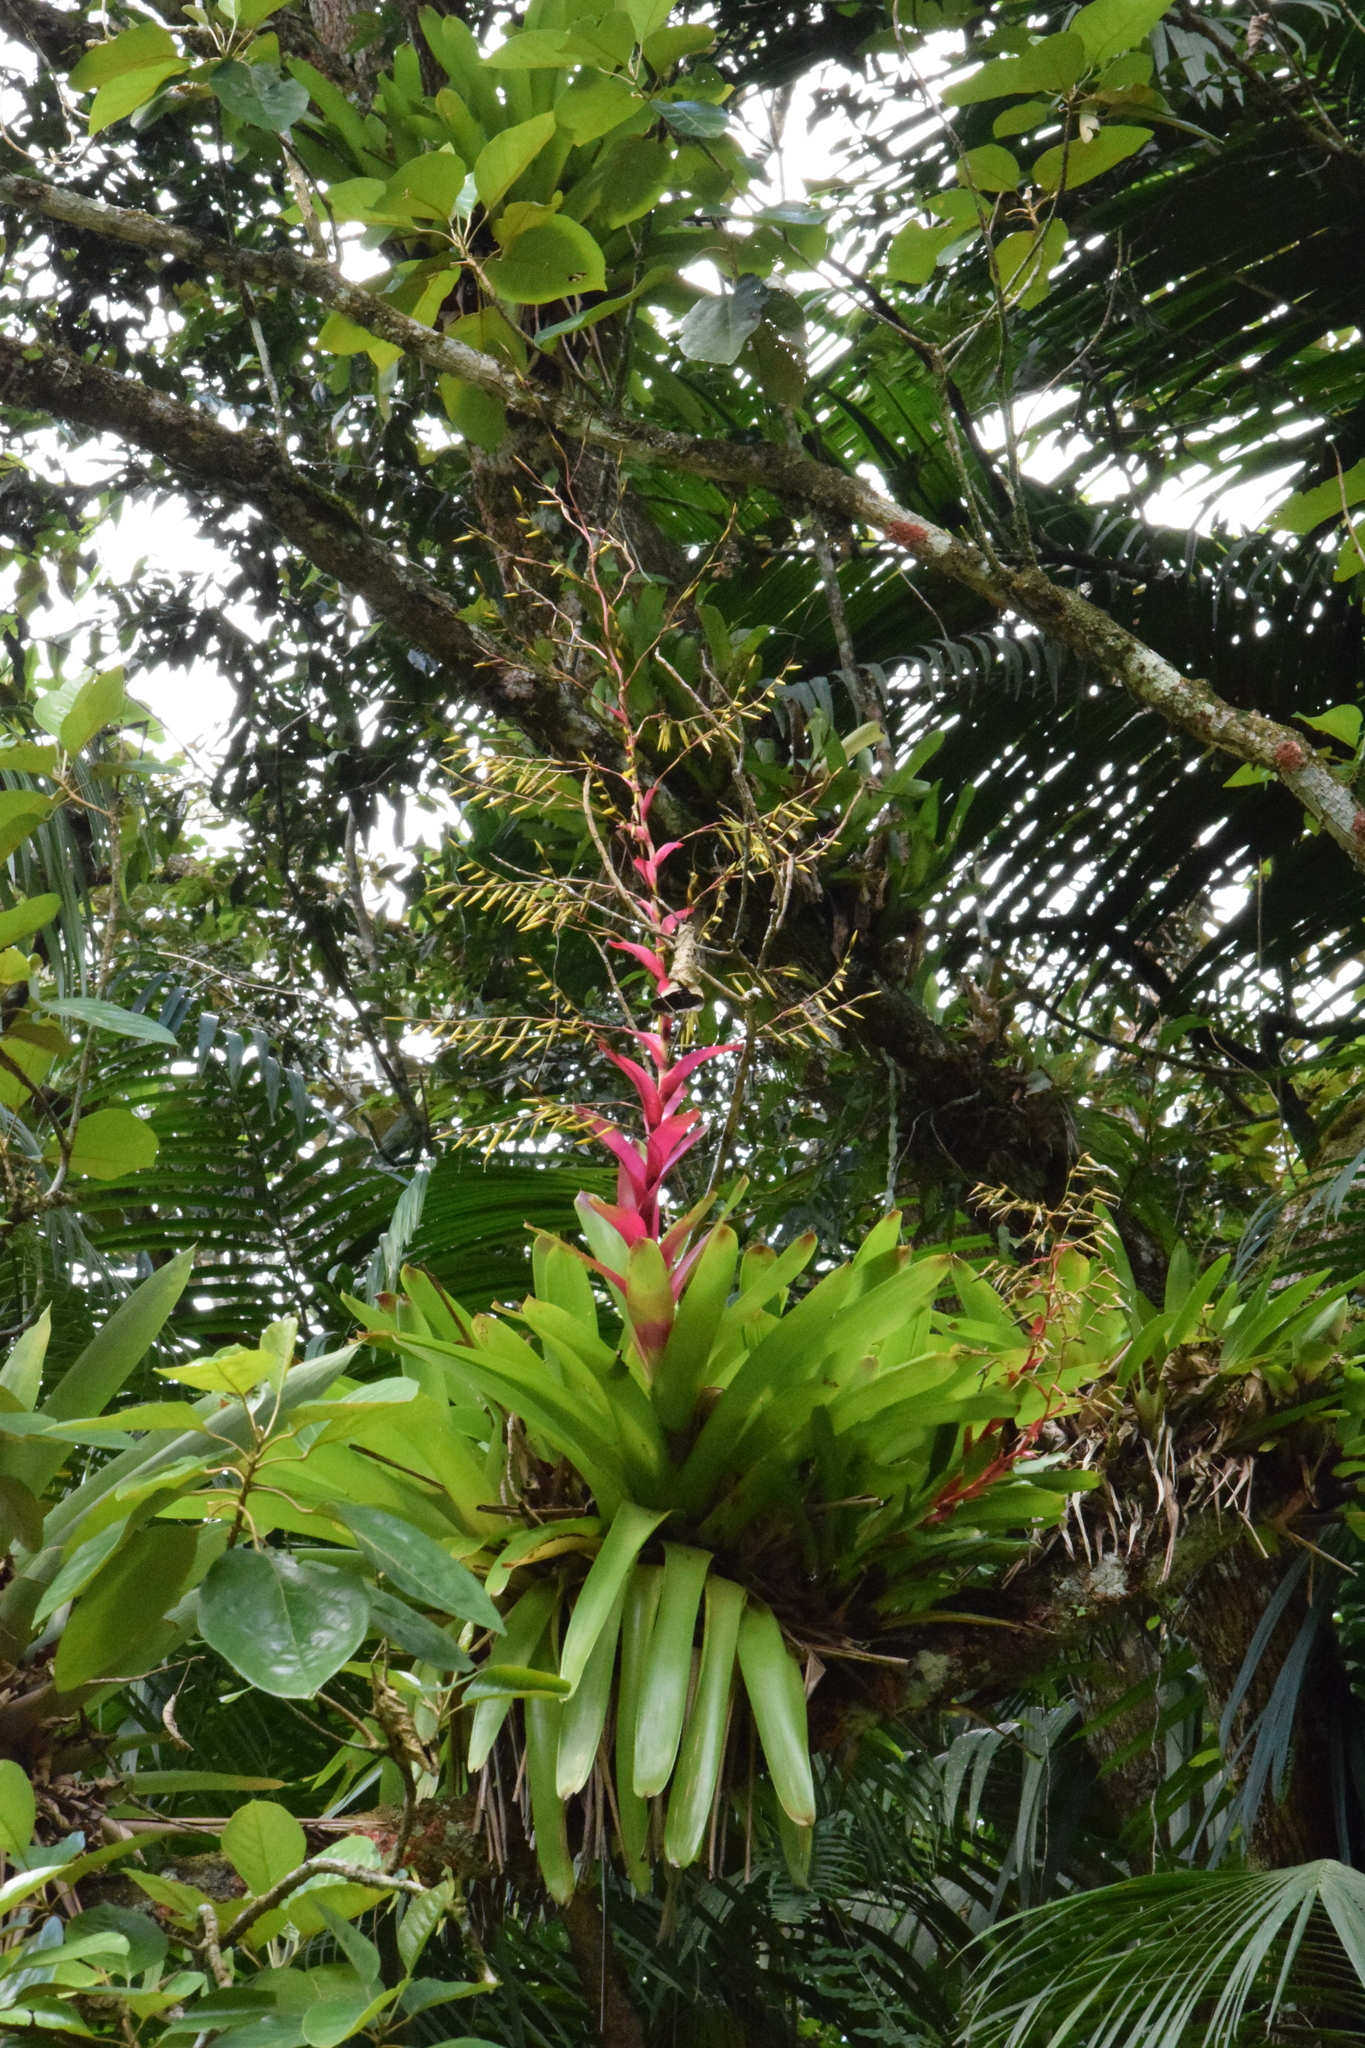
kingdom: Plantae
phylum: Tracheophyta
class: Liliopsida
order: Poales
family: Bromeliaceae
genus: Vriesea
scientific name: Vriesea philippocoburgi
